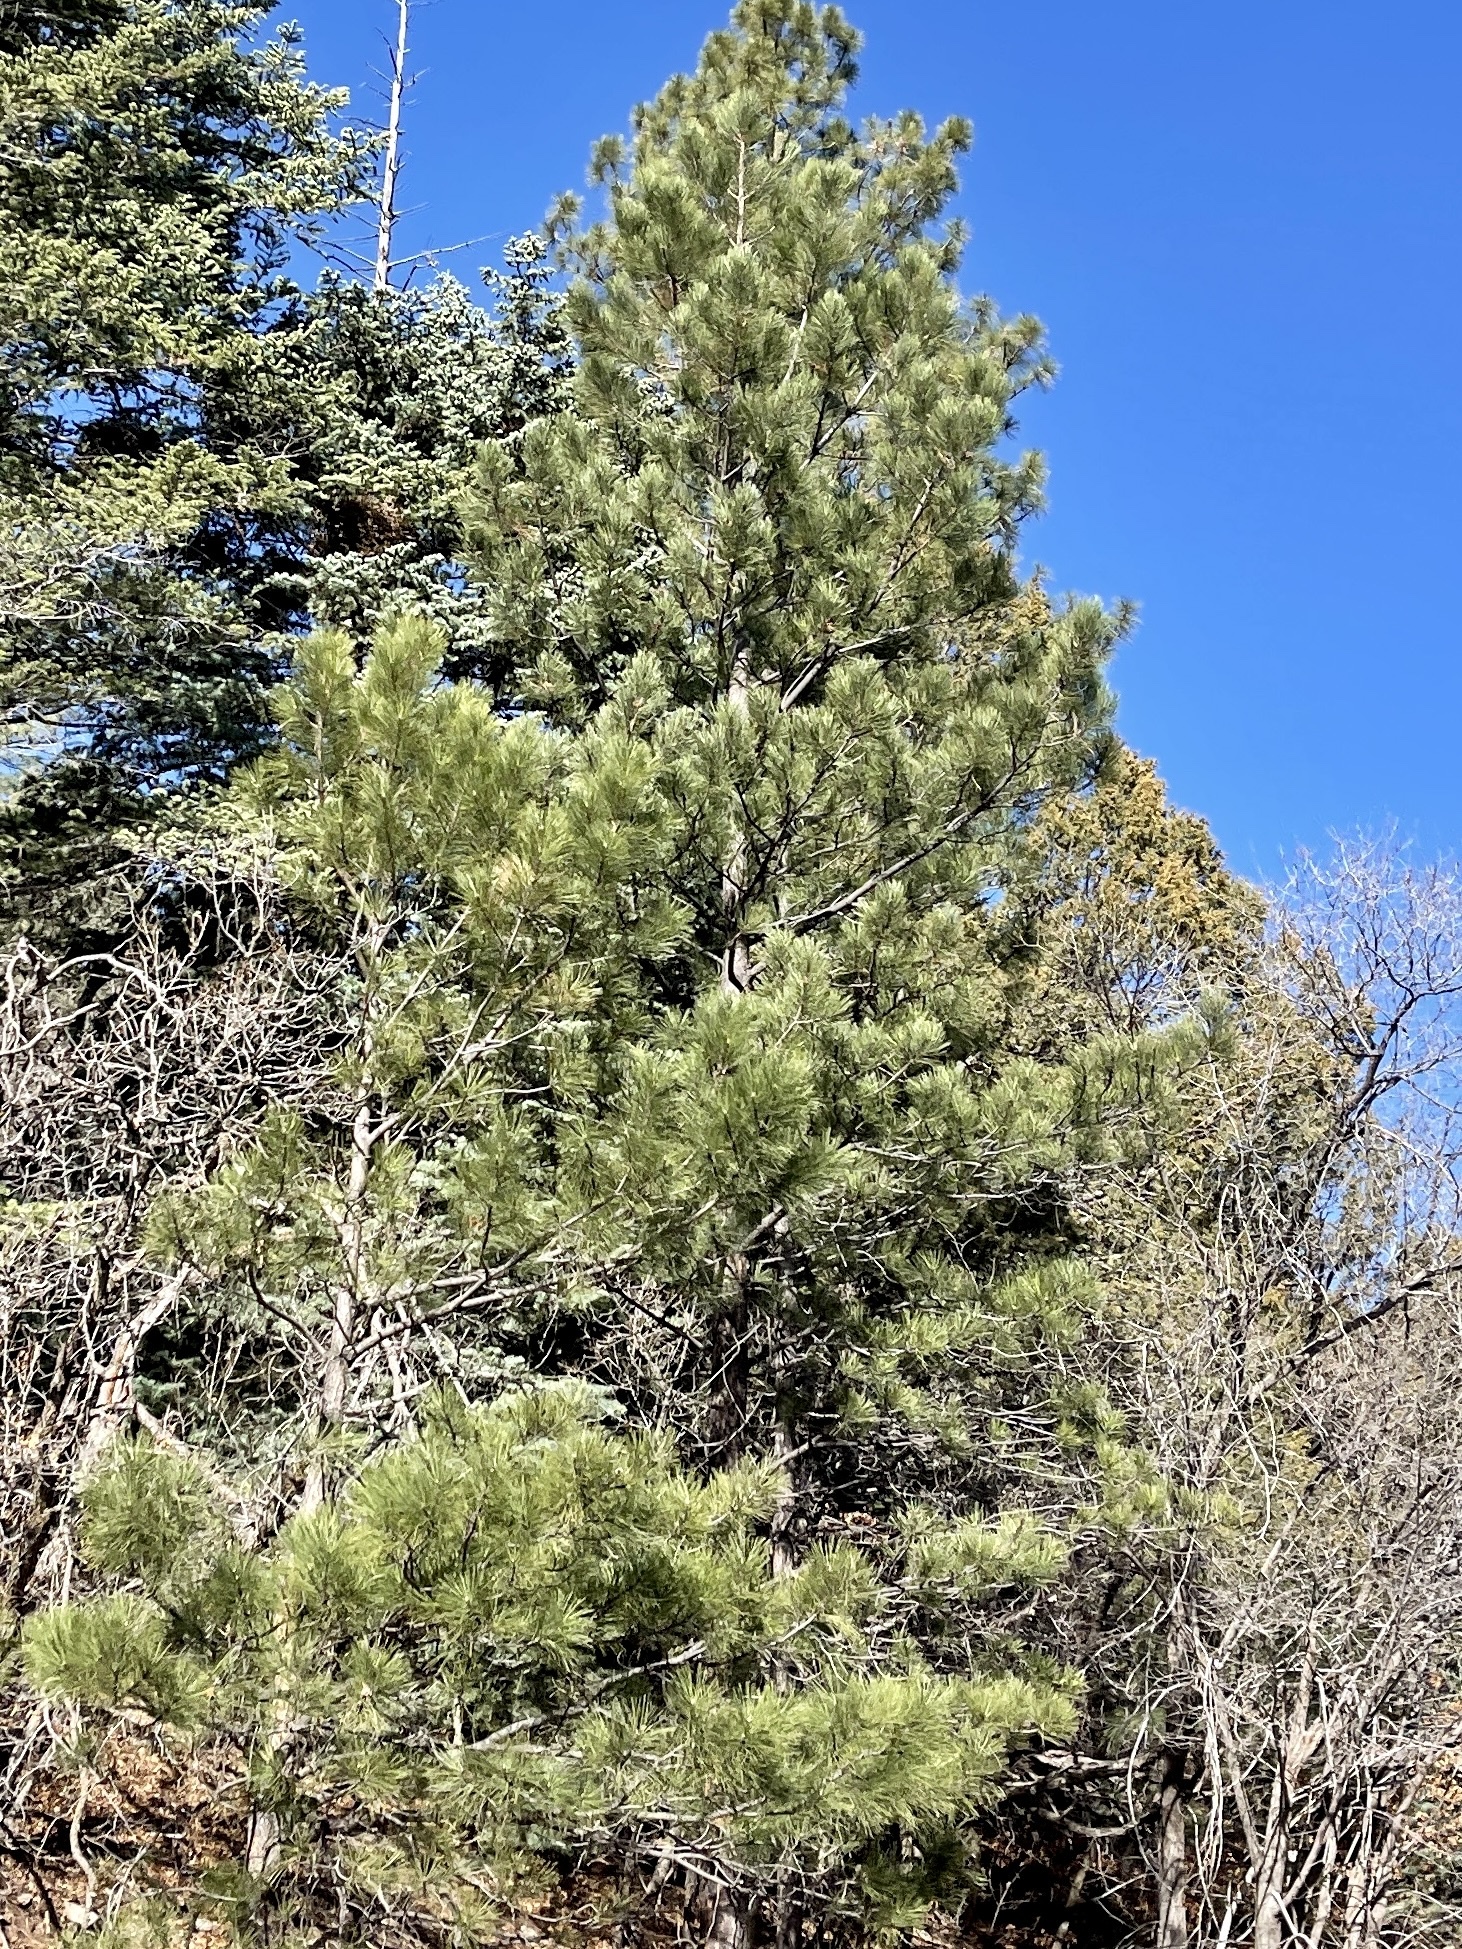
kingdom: Plantae
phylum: Tracheophyta
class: Pinopsida
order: Pinales
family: Pinaceae
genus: Pinus
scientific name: Pinus ponderosa
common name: Western yellow-pine
